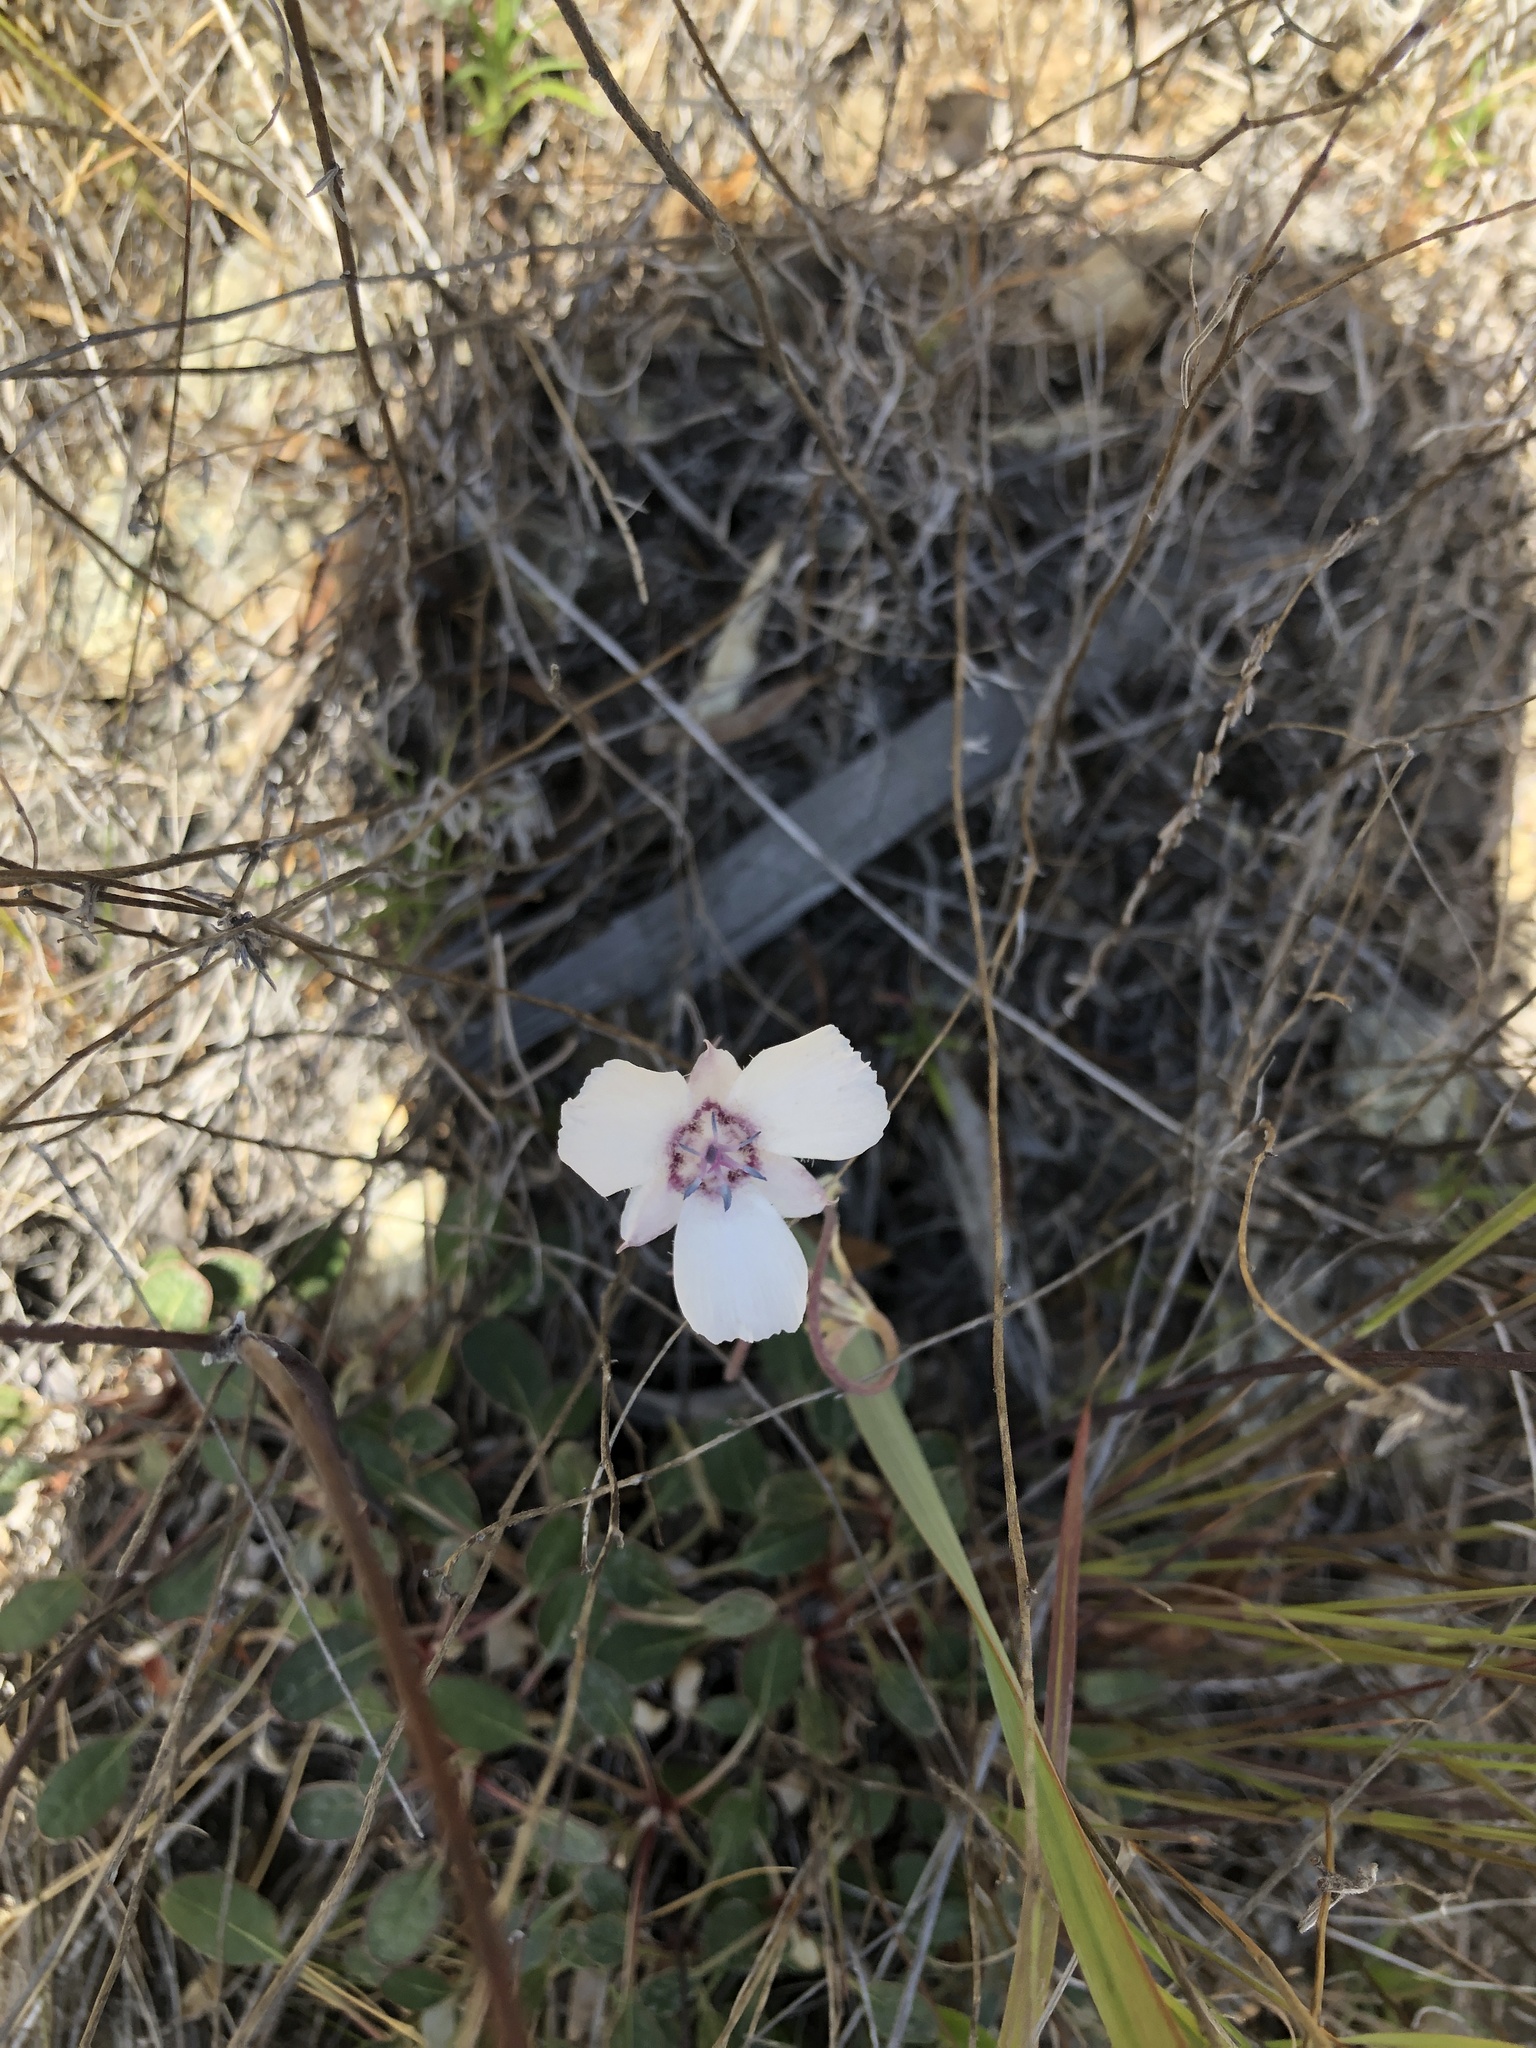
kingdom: Plantae
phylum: Tracheophyta
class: Liliopsida
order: Liliales
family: Liliaceae
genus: Calochortus
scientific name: Calochortus umbellatus
